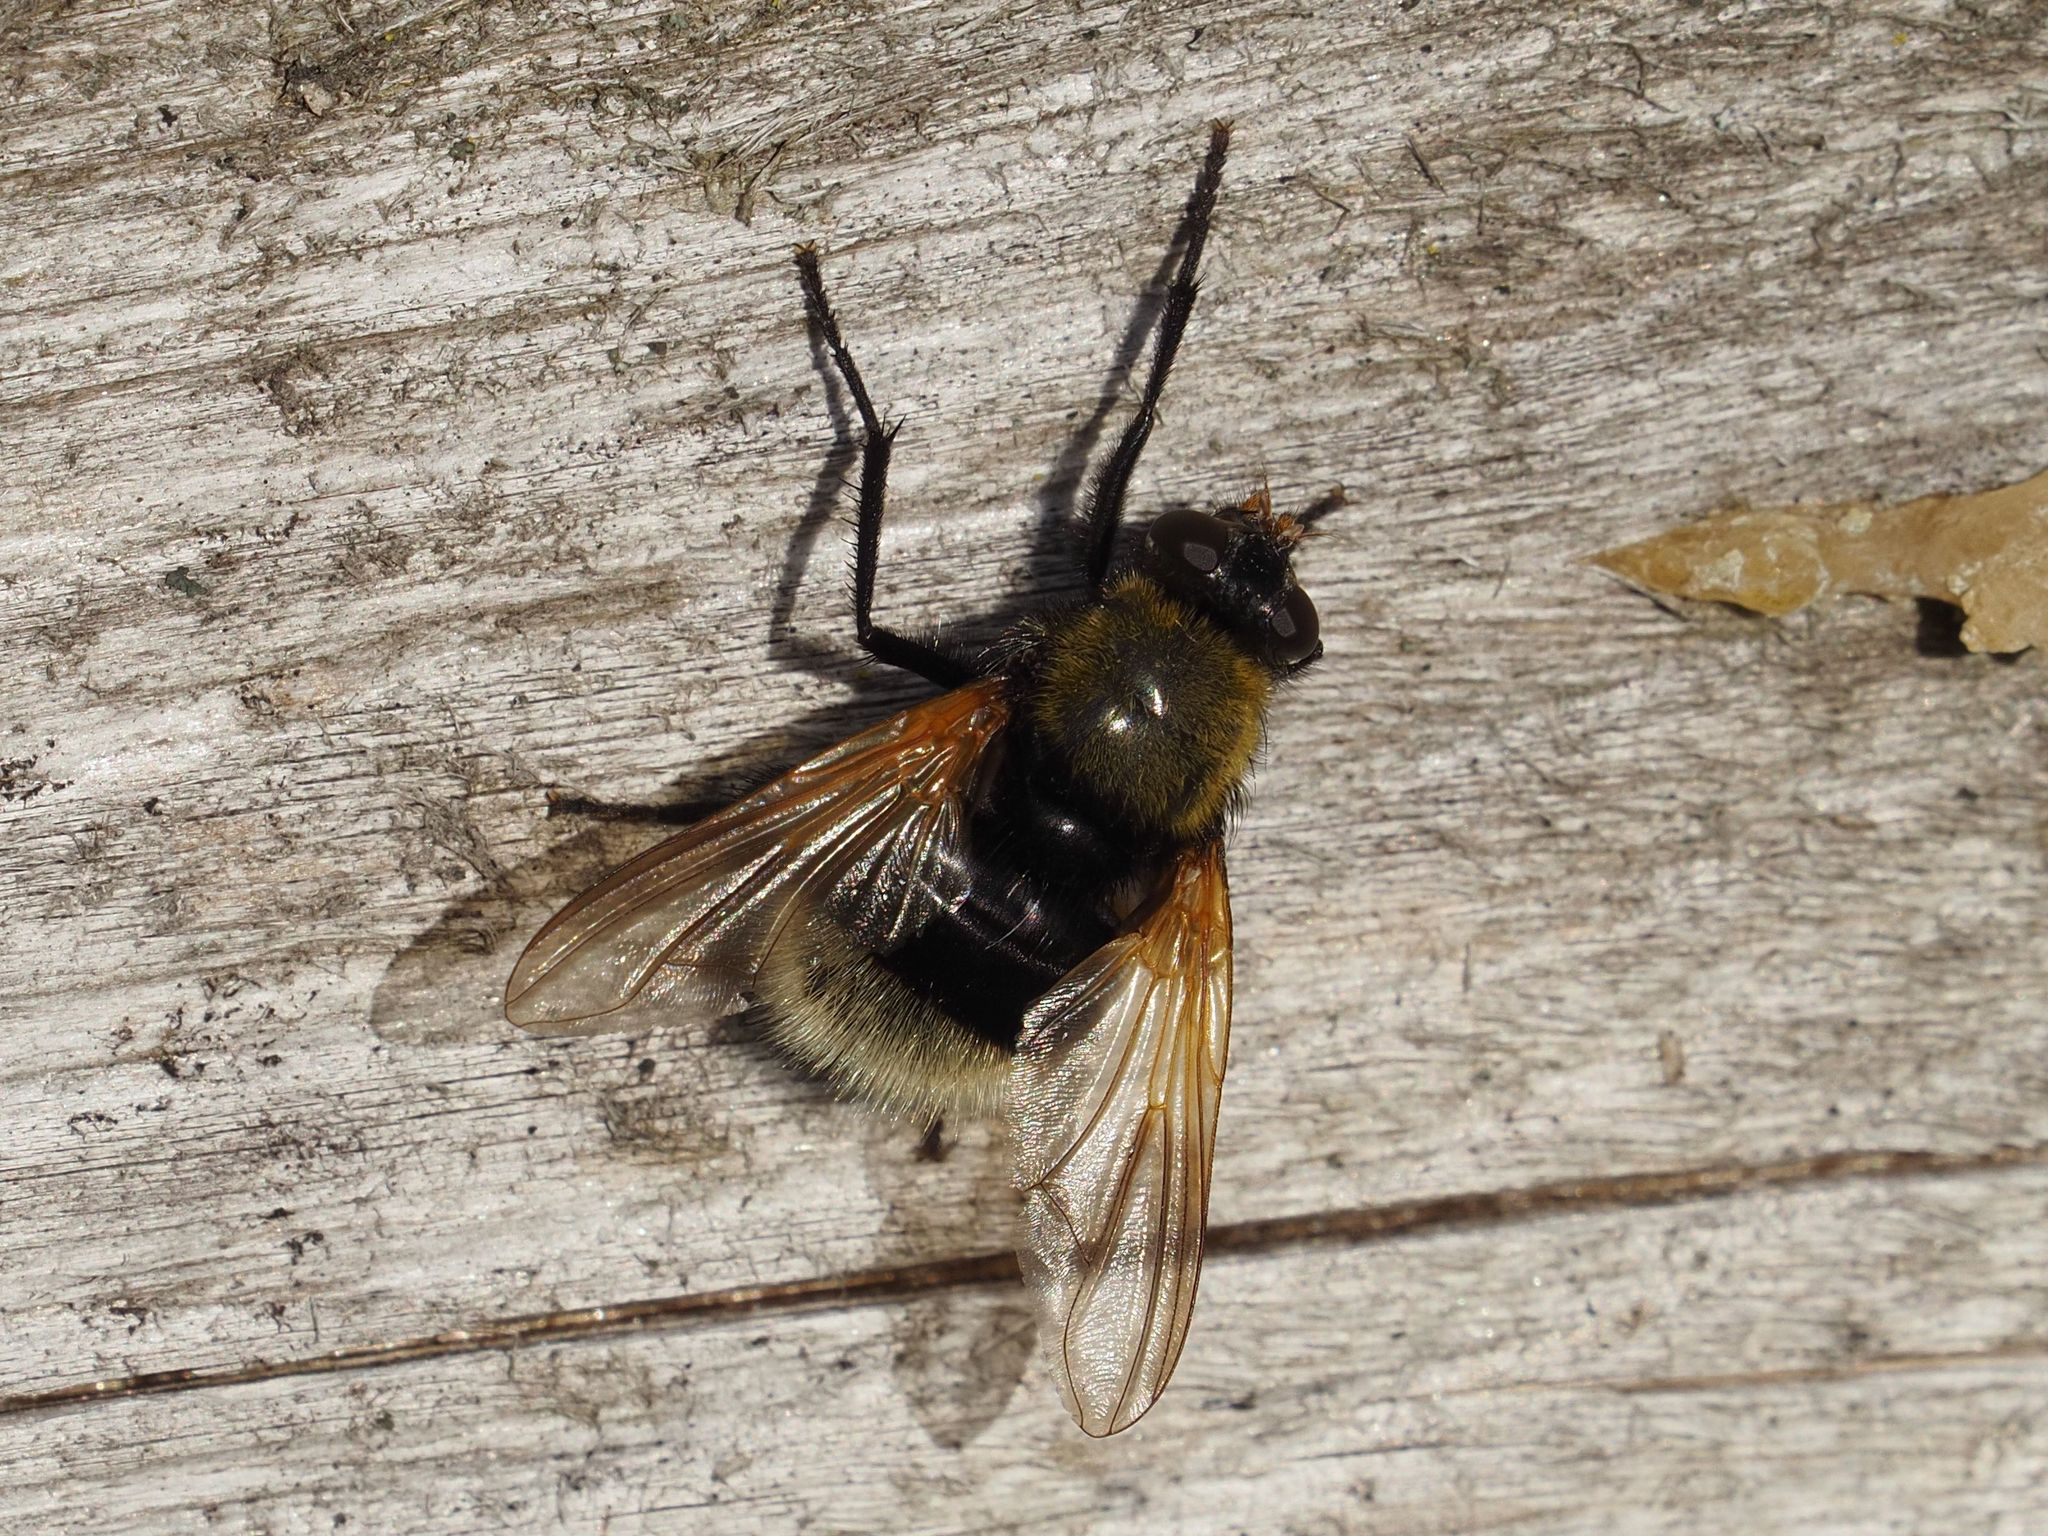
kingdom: Animalia
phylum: Arthropoda
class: Insecta
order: Diptera
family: Muscidae
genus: Mesembrina
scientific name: Mesembrina mystacea
